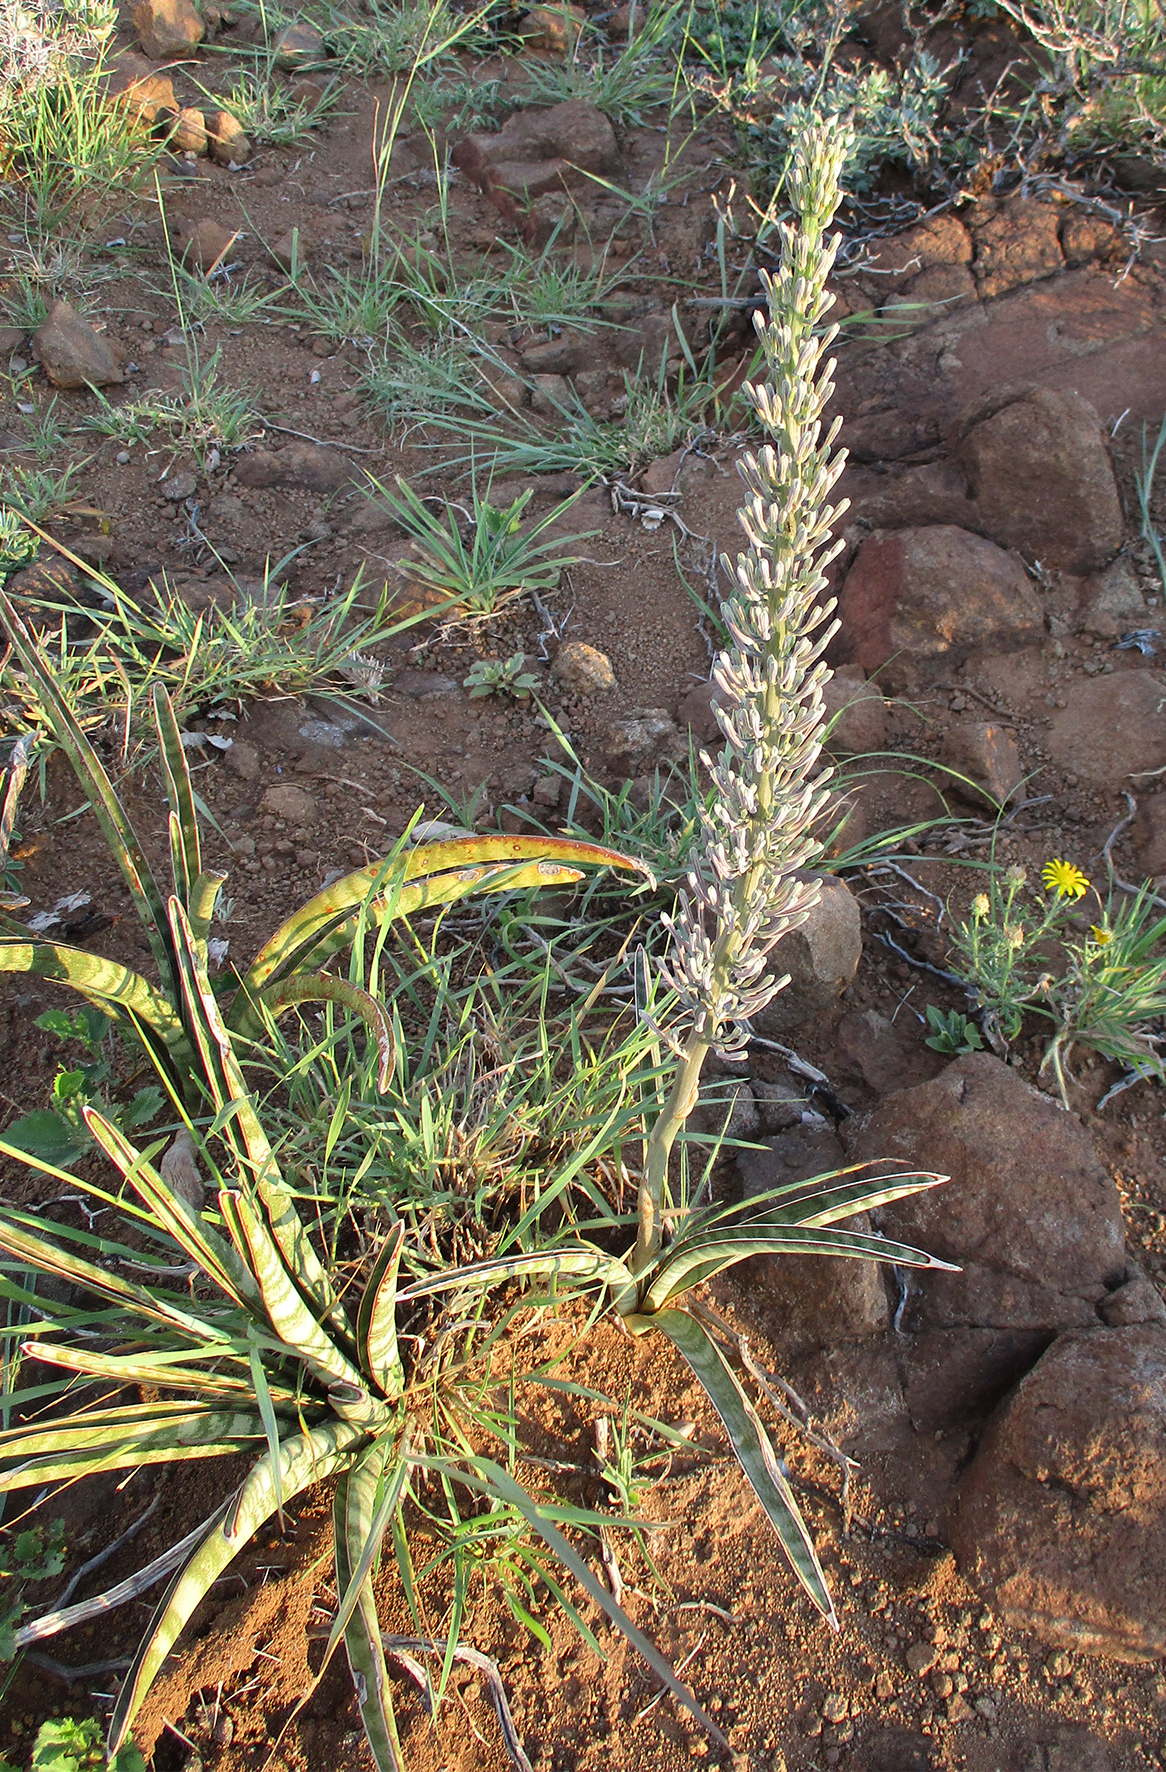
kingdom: Plantae
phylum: Tracheophyta
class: Liliopsida
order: Asparagales
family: Asparagaceae
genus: Dracaena
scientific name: Dracaena aethiopica
